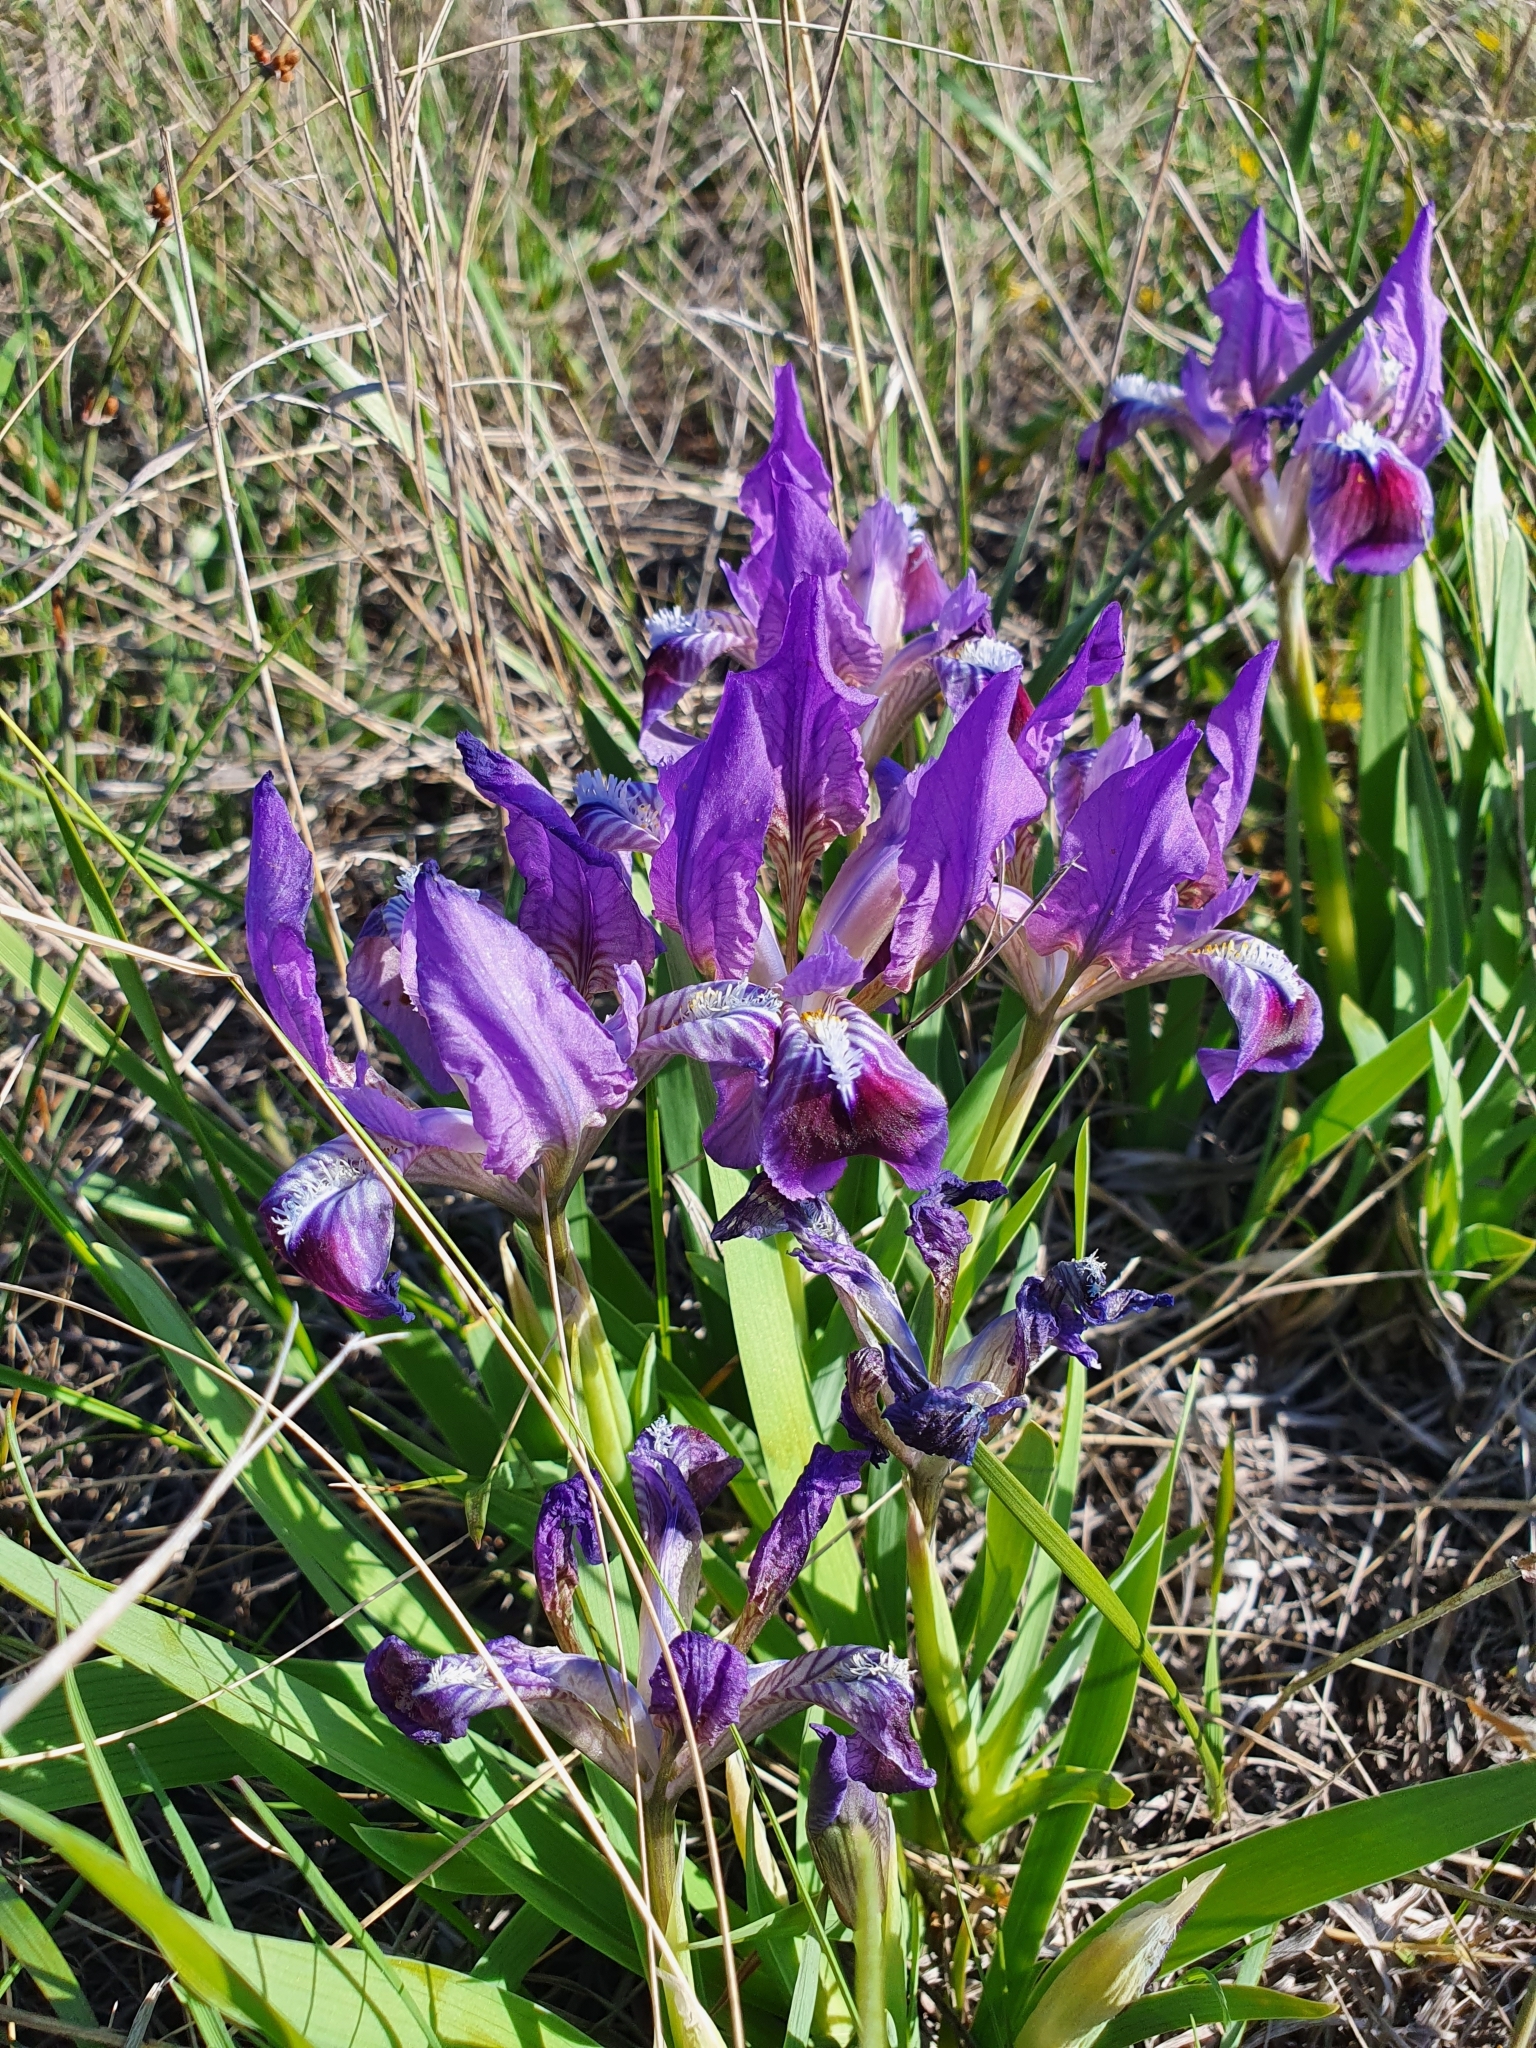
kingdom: Plantae
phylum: Tracheophyta
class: Liliopsida
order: Asparagales
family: Iridaceae
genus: Iris
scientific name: Iris pumila
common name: Dwarf iris
